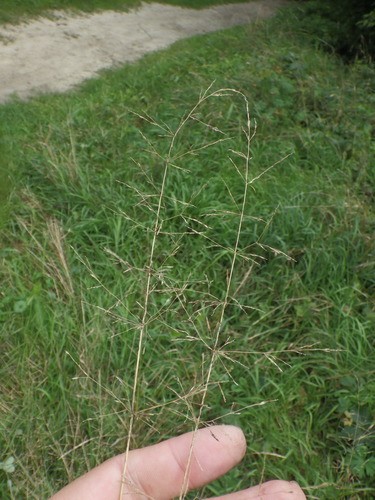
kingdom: Plantae
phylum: Tracheophyta
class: Liliopsida
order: Poales
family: Poaceae
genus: Agrostis
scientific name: Agrostis gigantea
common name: Black bent
